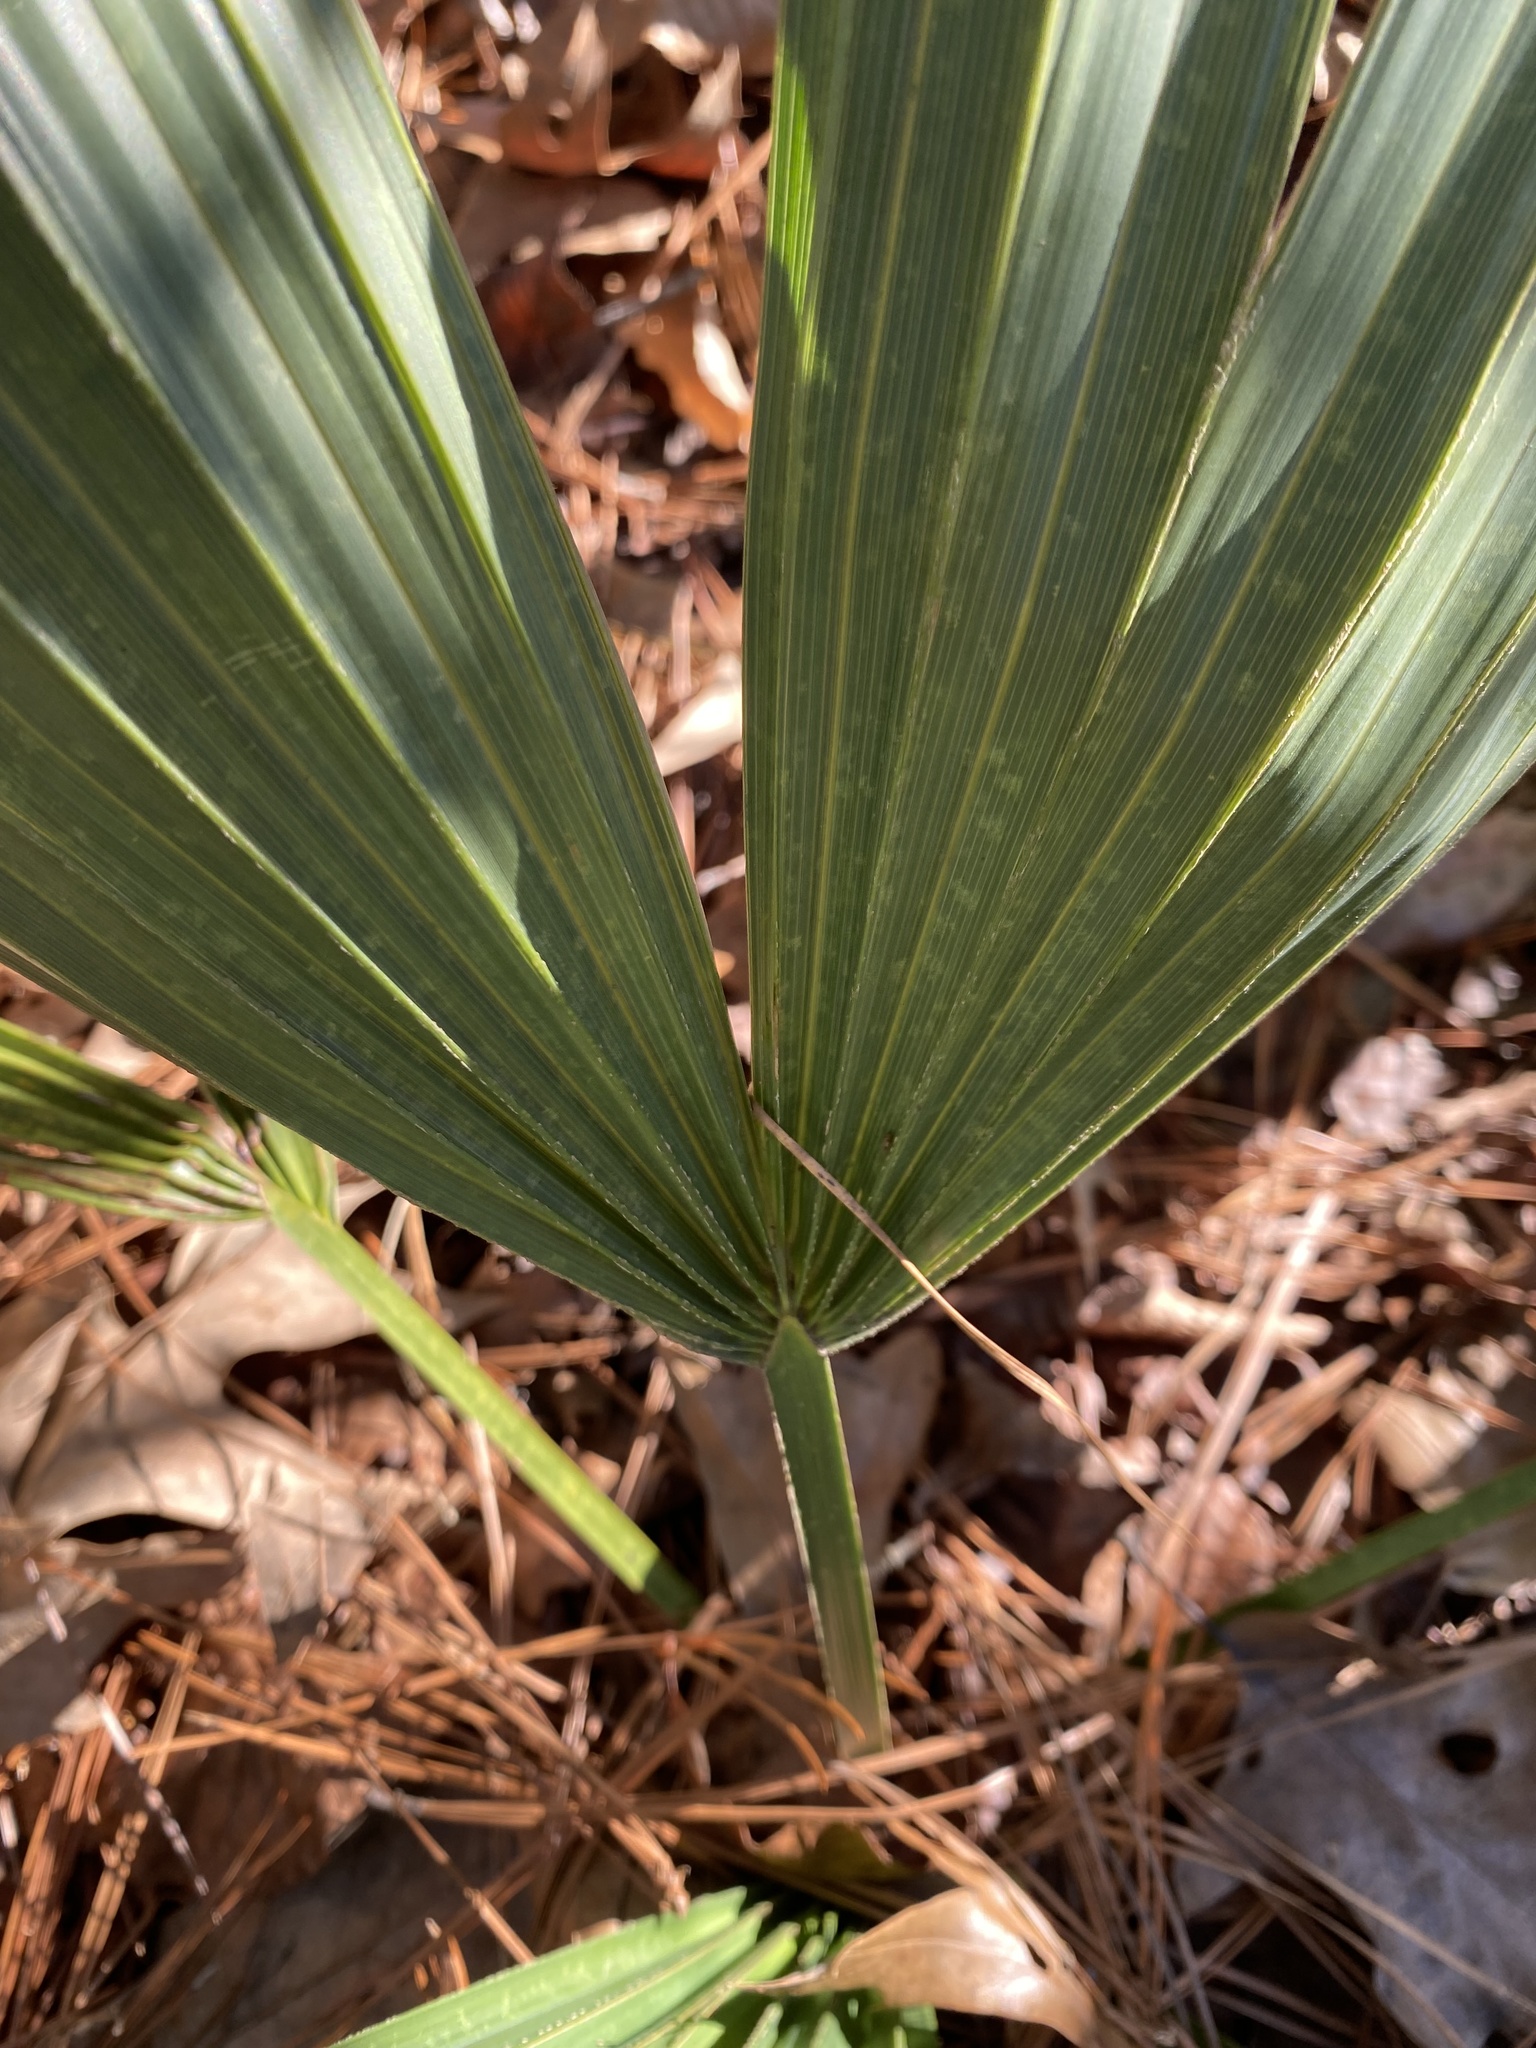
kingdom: Plantae
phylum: Tracheophyta
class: Liliopsida
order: Arecales
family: Arecaceae
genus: Sabal
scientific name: Sabal minor
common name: Dwarf palmetto
